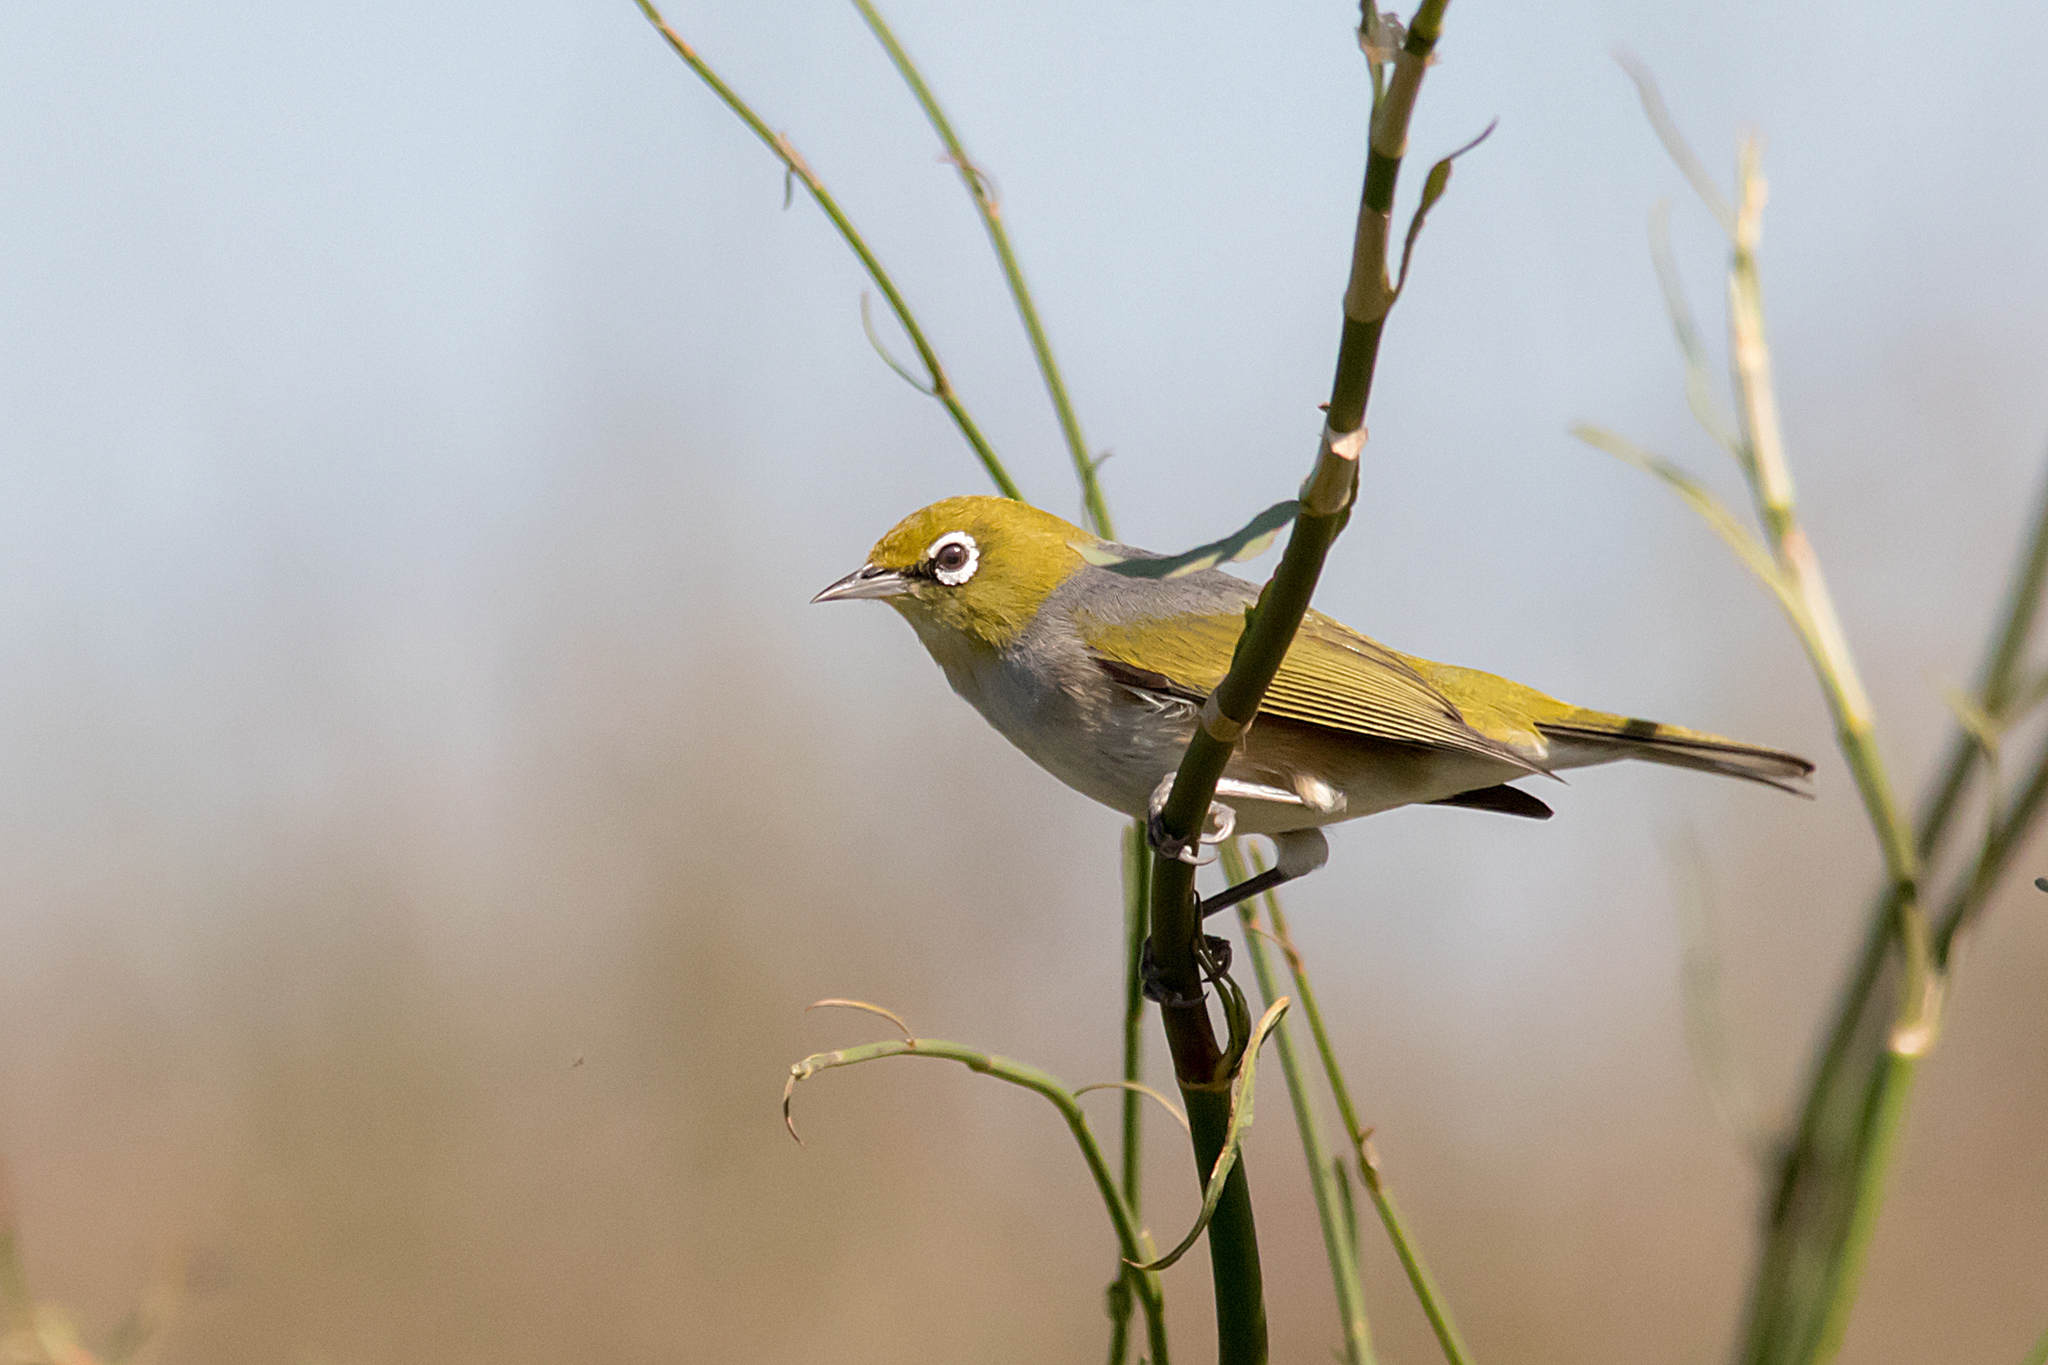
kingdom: Animalia
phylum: Chordata
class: Aves
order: Passeriformes
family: Zosteropidae
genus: Zosterops
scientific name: Zosterops lateralis
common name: Silvereye
